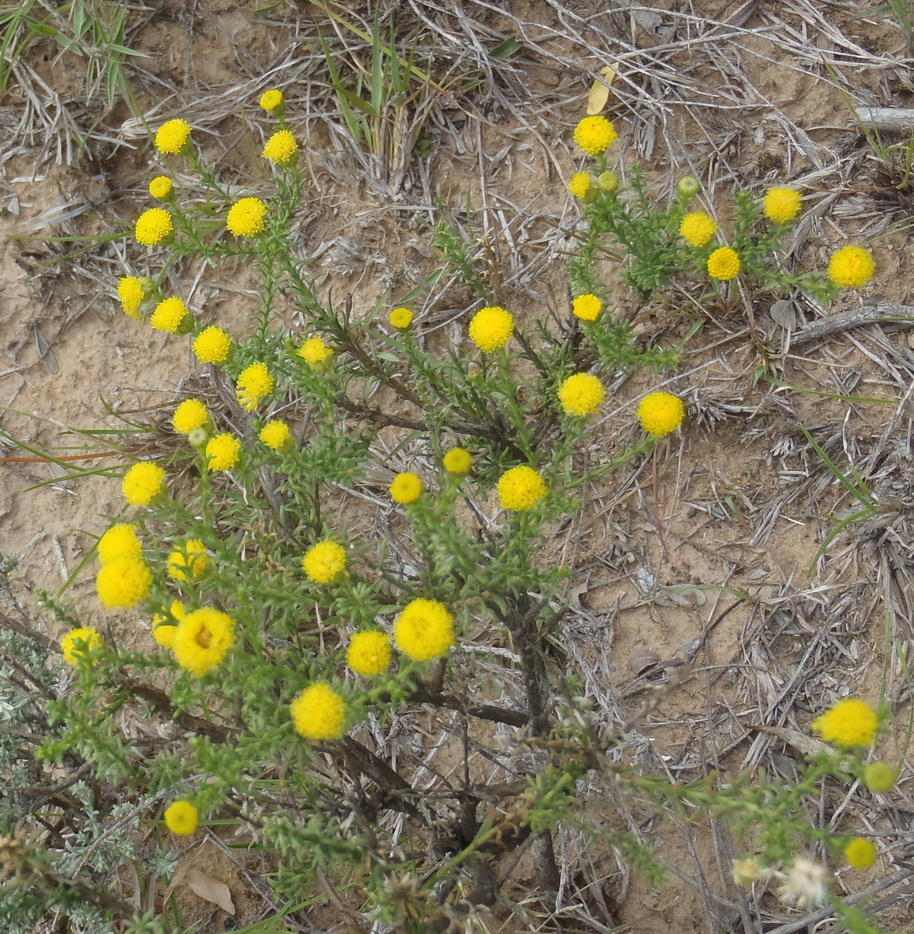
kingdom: Plantae
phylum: Tracheophyta
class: Magnoliopsida
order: Asterales
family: Asteraceae
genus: Chrysocoma
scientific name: Chrysocoma ciliata
